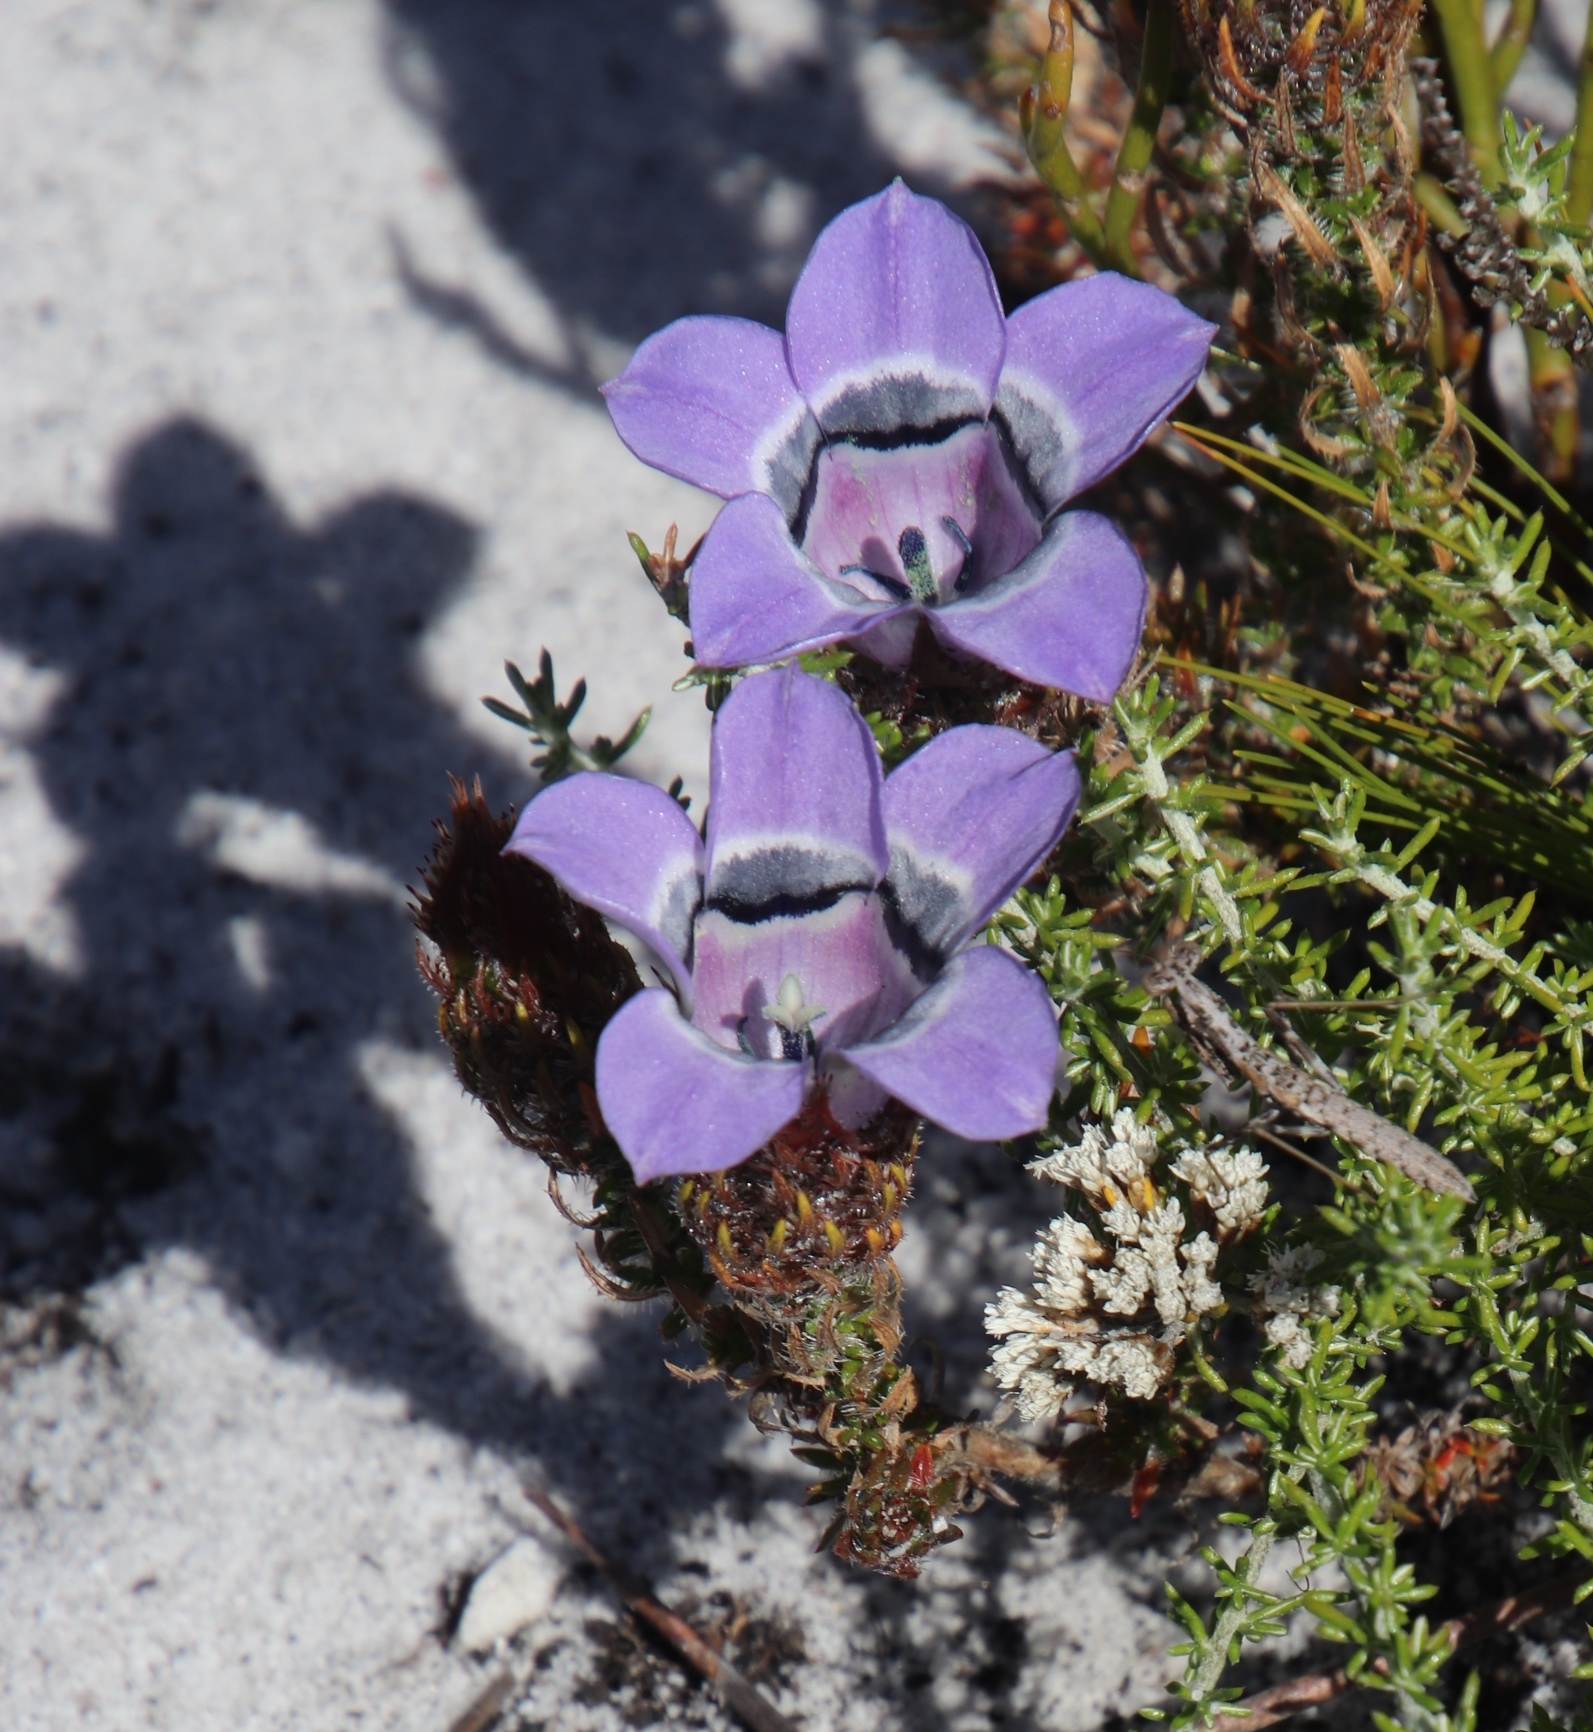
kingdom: Plantae
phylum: Tracheophyta
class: Magnoliopsida
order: Asterales
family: Campanulaceae
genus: Roella
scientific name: Roella ciliata
